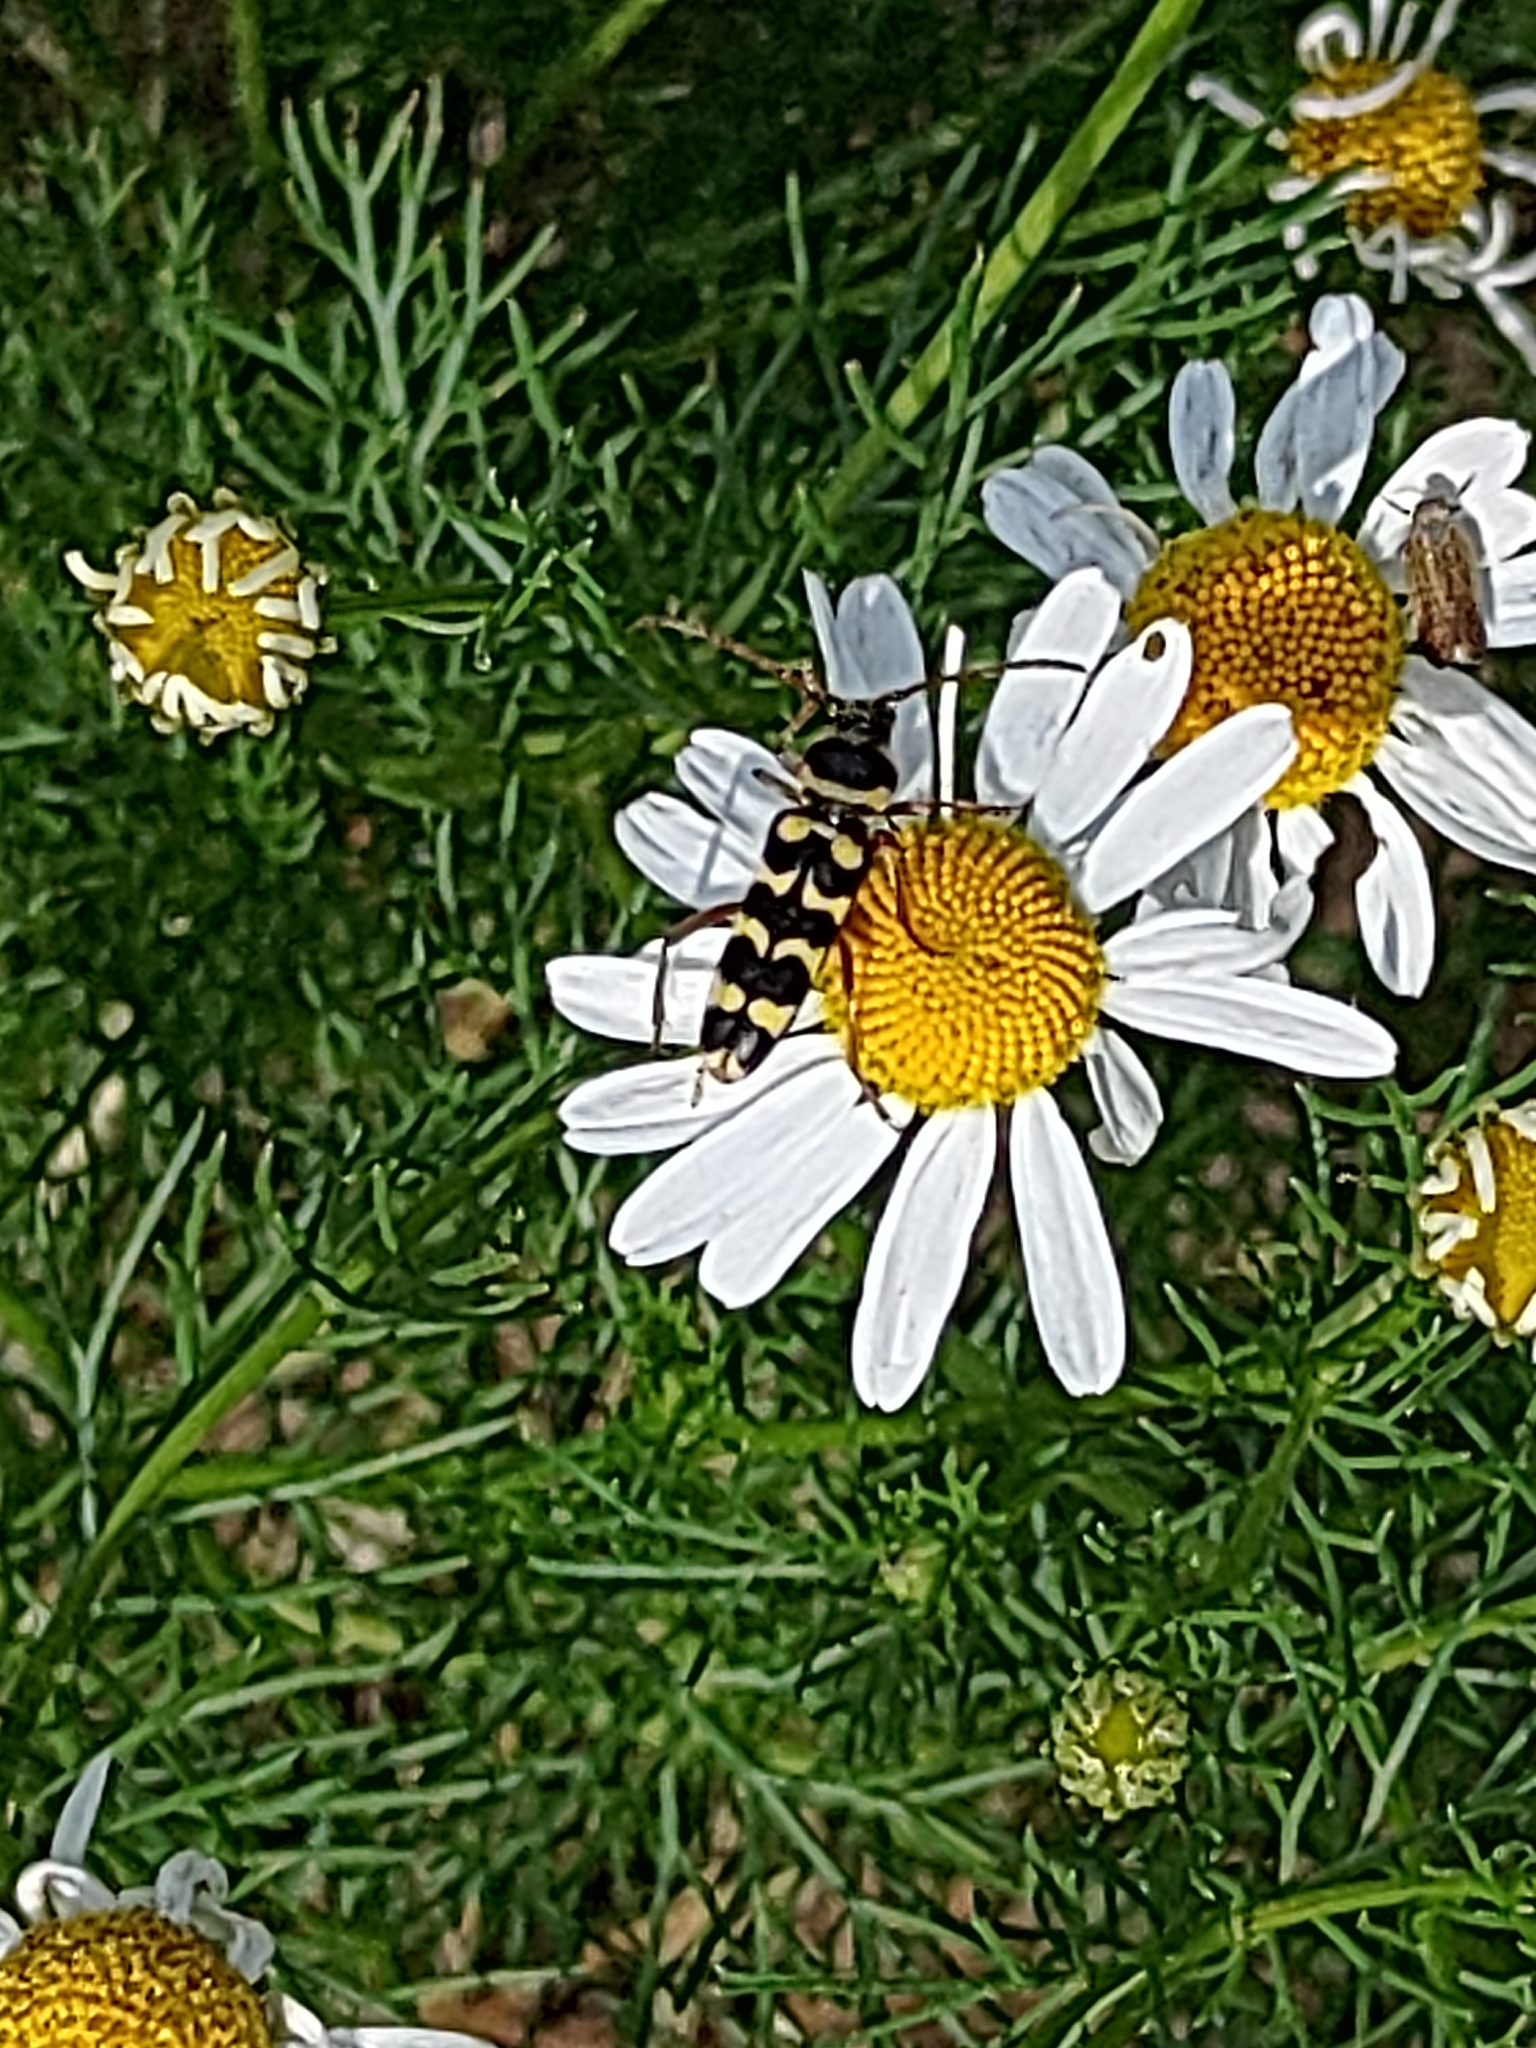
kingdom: Animalia
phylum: Arthropoda
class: Insecta
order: Coleoptera
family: Cerambycidae
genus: Plagionotus
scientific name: Plagionotus floralis
